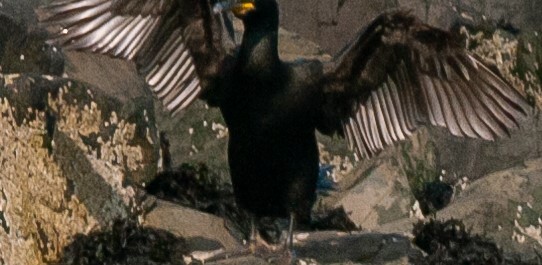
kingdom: Animalia
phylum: Chordata
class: Aves
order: Suliformes
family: Phalacrocoracidae
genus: Phalacrocorax
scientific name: Phalacrocorax aristotelis
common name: European shag
